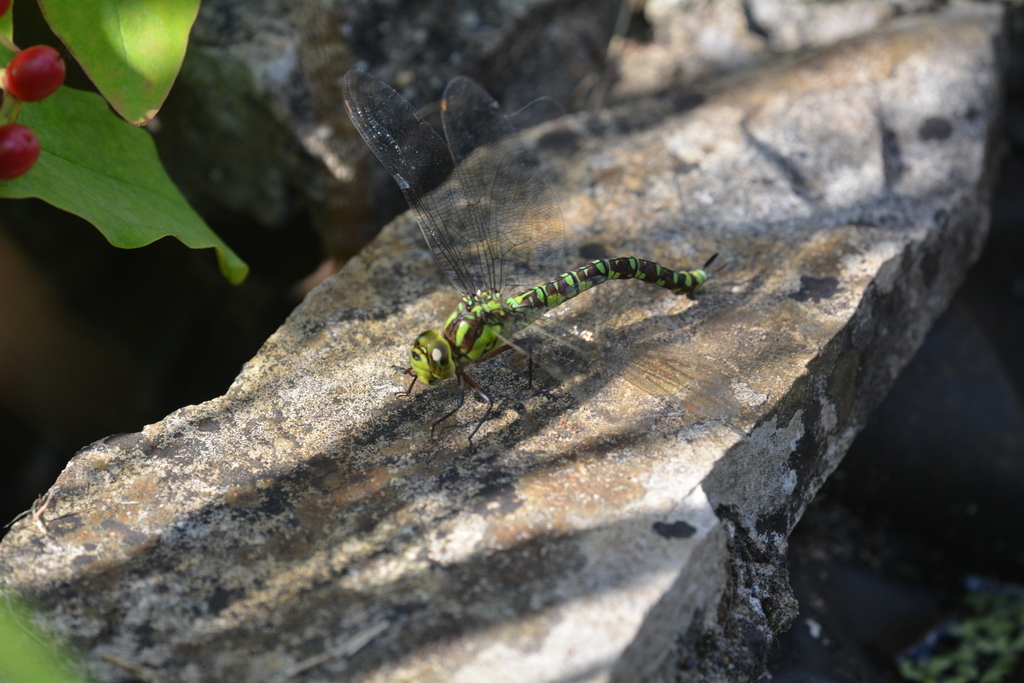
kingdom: Animalia
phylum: Arthropoda
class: Insecta
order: Odonata
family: Aeshnidae
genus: Aeshna
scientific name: Aeshna cyanea
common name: Southern hawker
